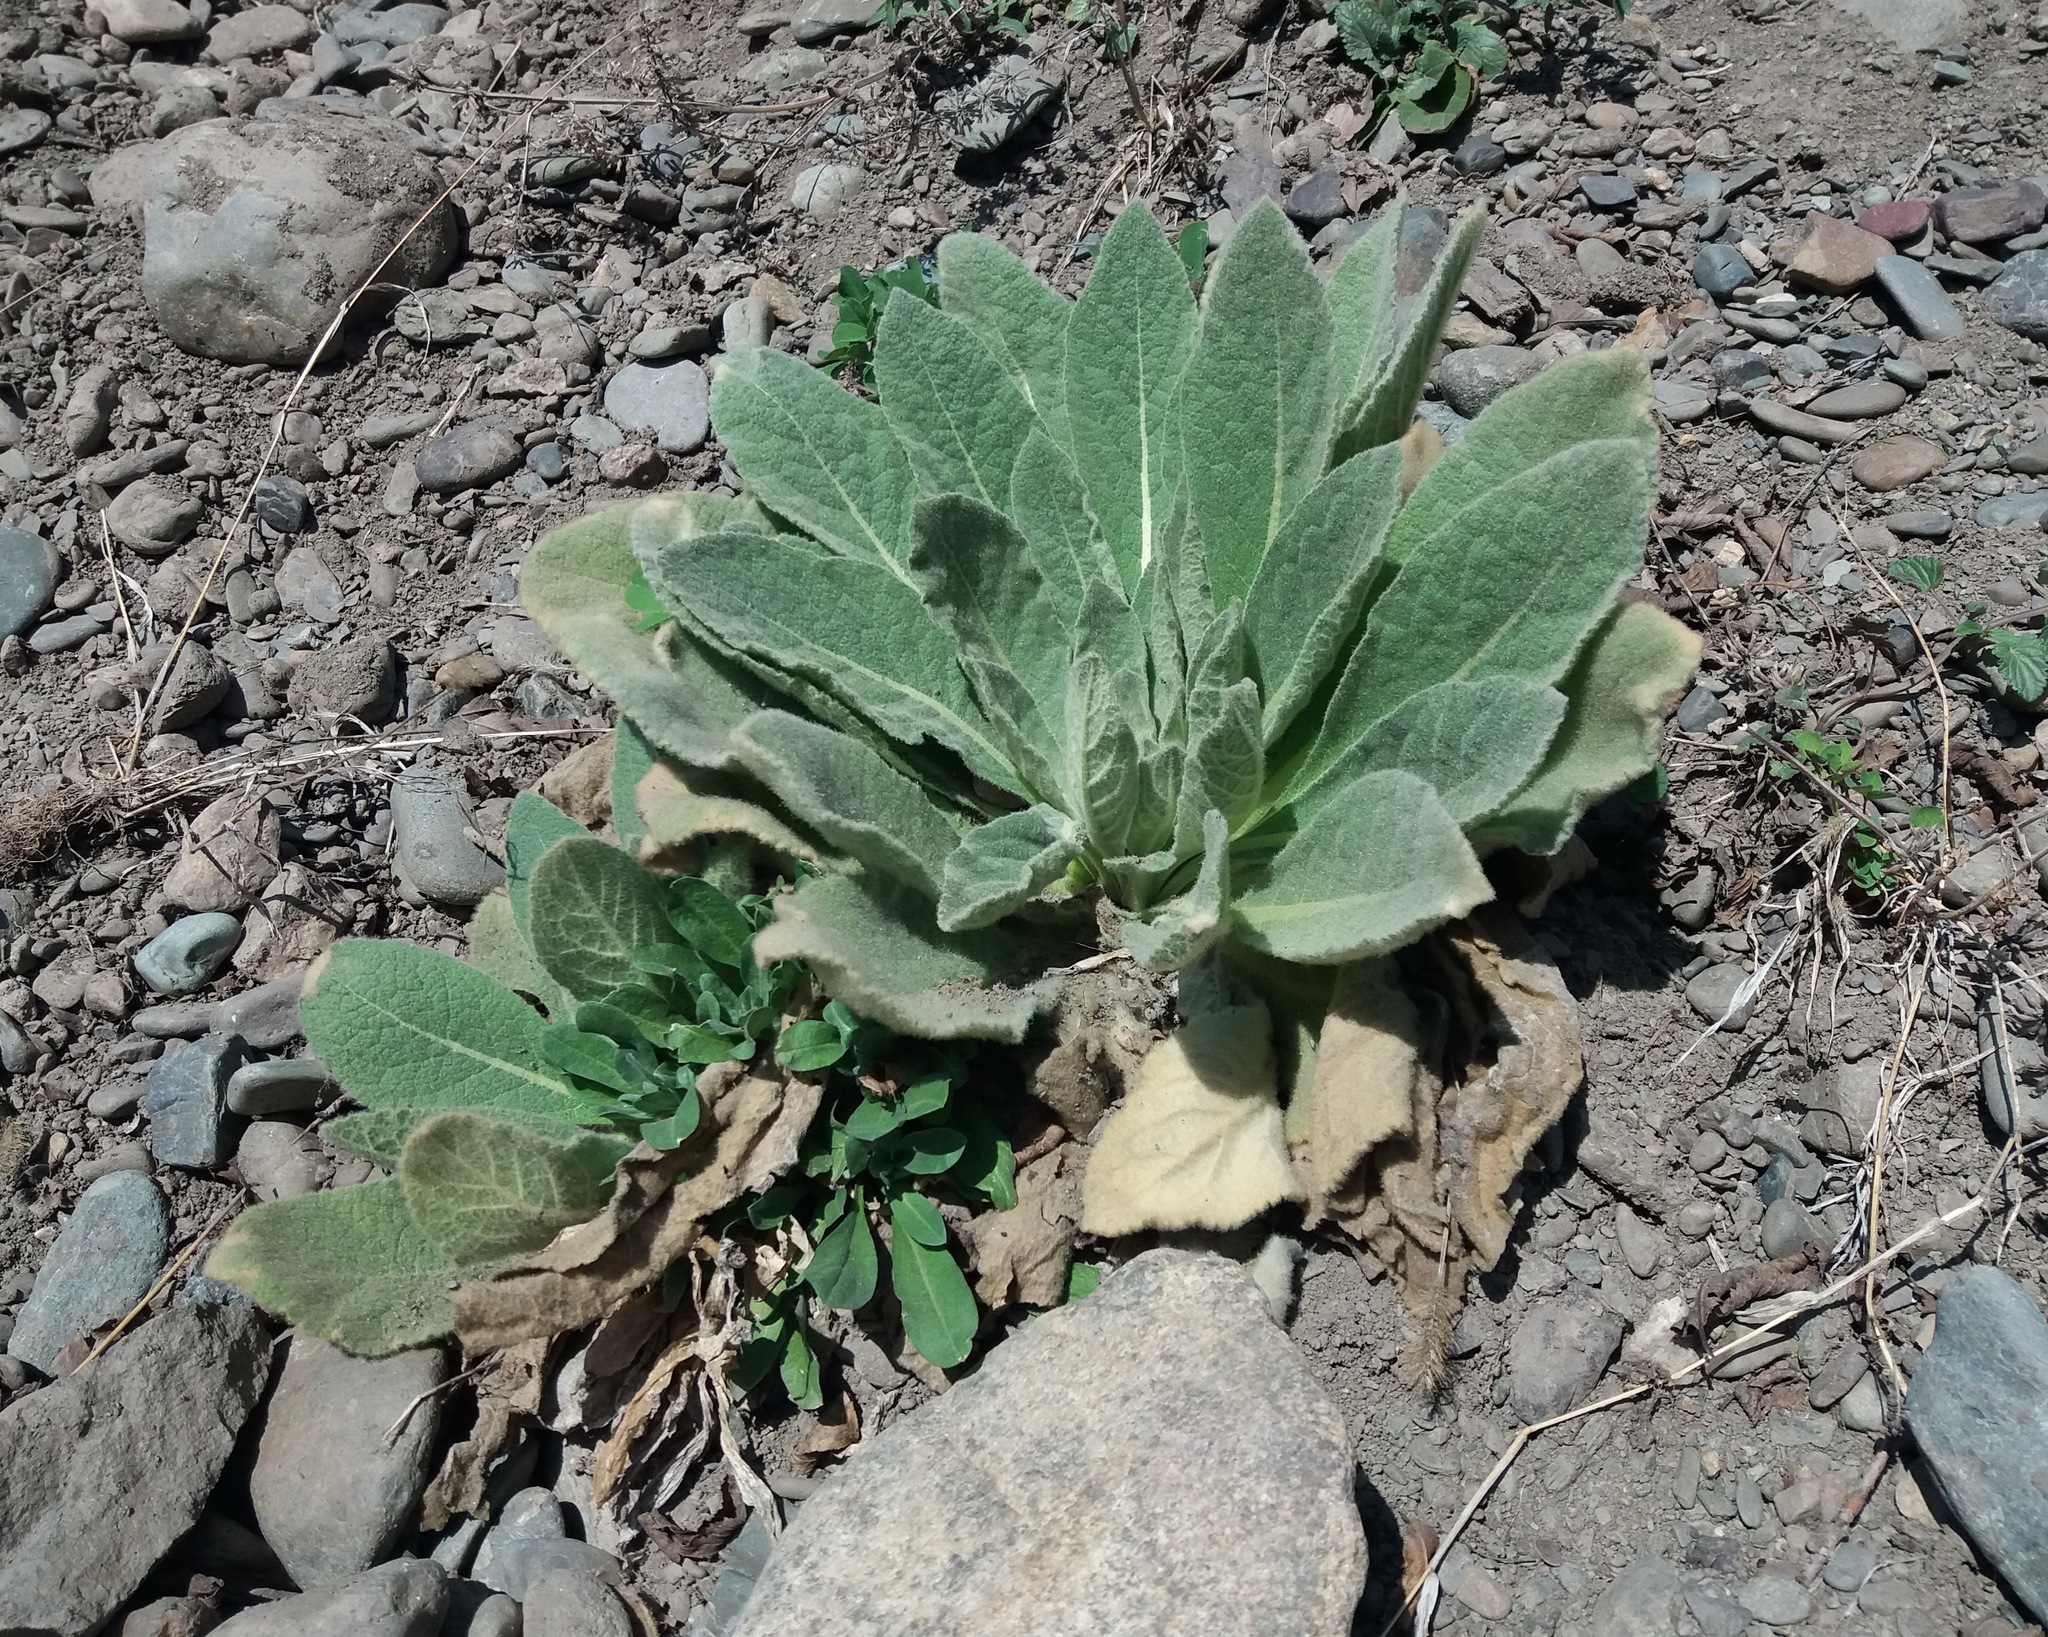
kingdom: Plantae
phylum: Tracheophyta
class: Magnoliopsida
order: Lamiales
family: Scrophulariaceae
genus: Verbascum
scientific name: Verbascum thapsus
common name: Common mullein
